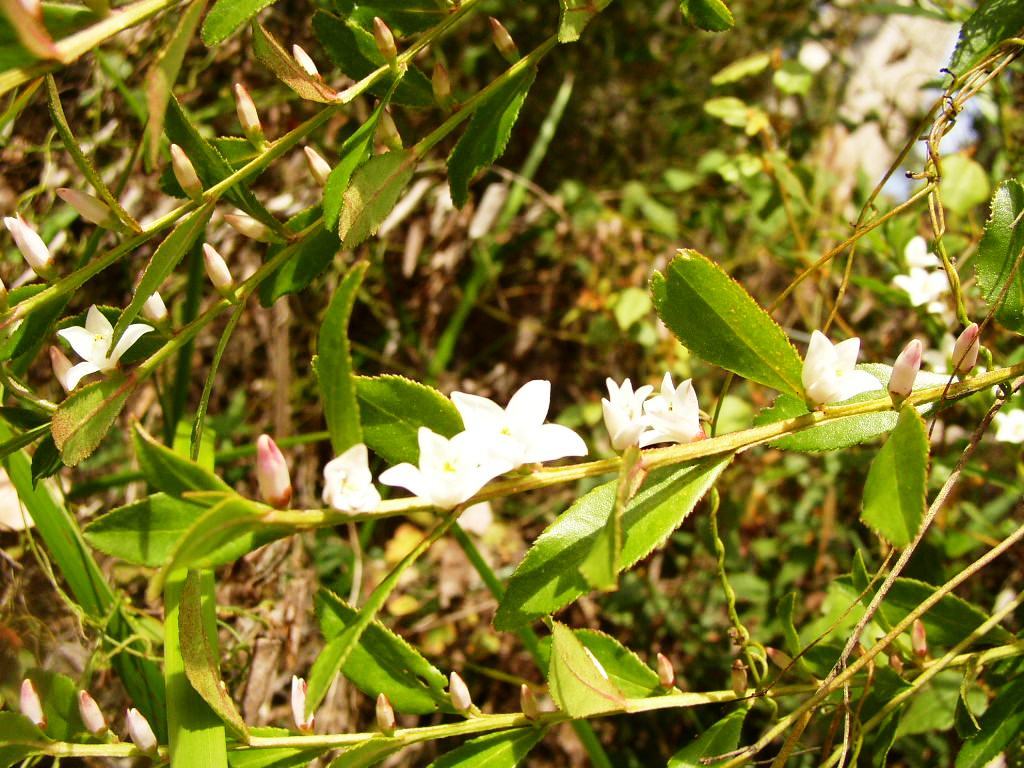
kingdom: Plantae
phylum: Tracheophyta
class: Magnoliopsida
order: Sapindales
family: Rutaceae
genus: Crowea
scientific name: Crowea angustifolia
